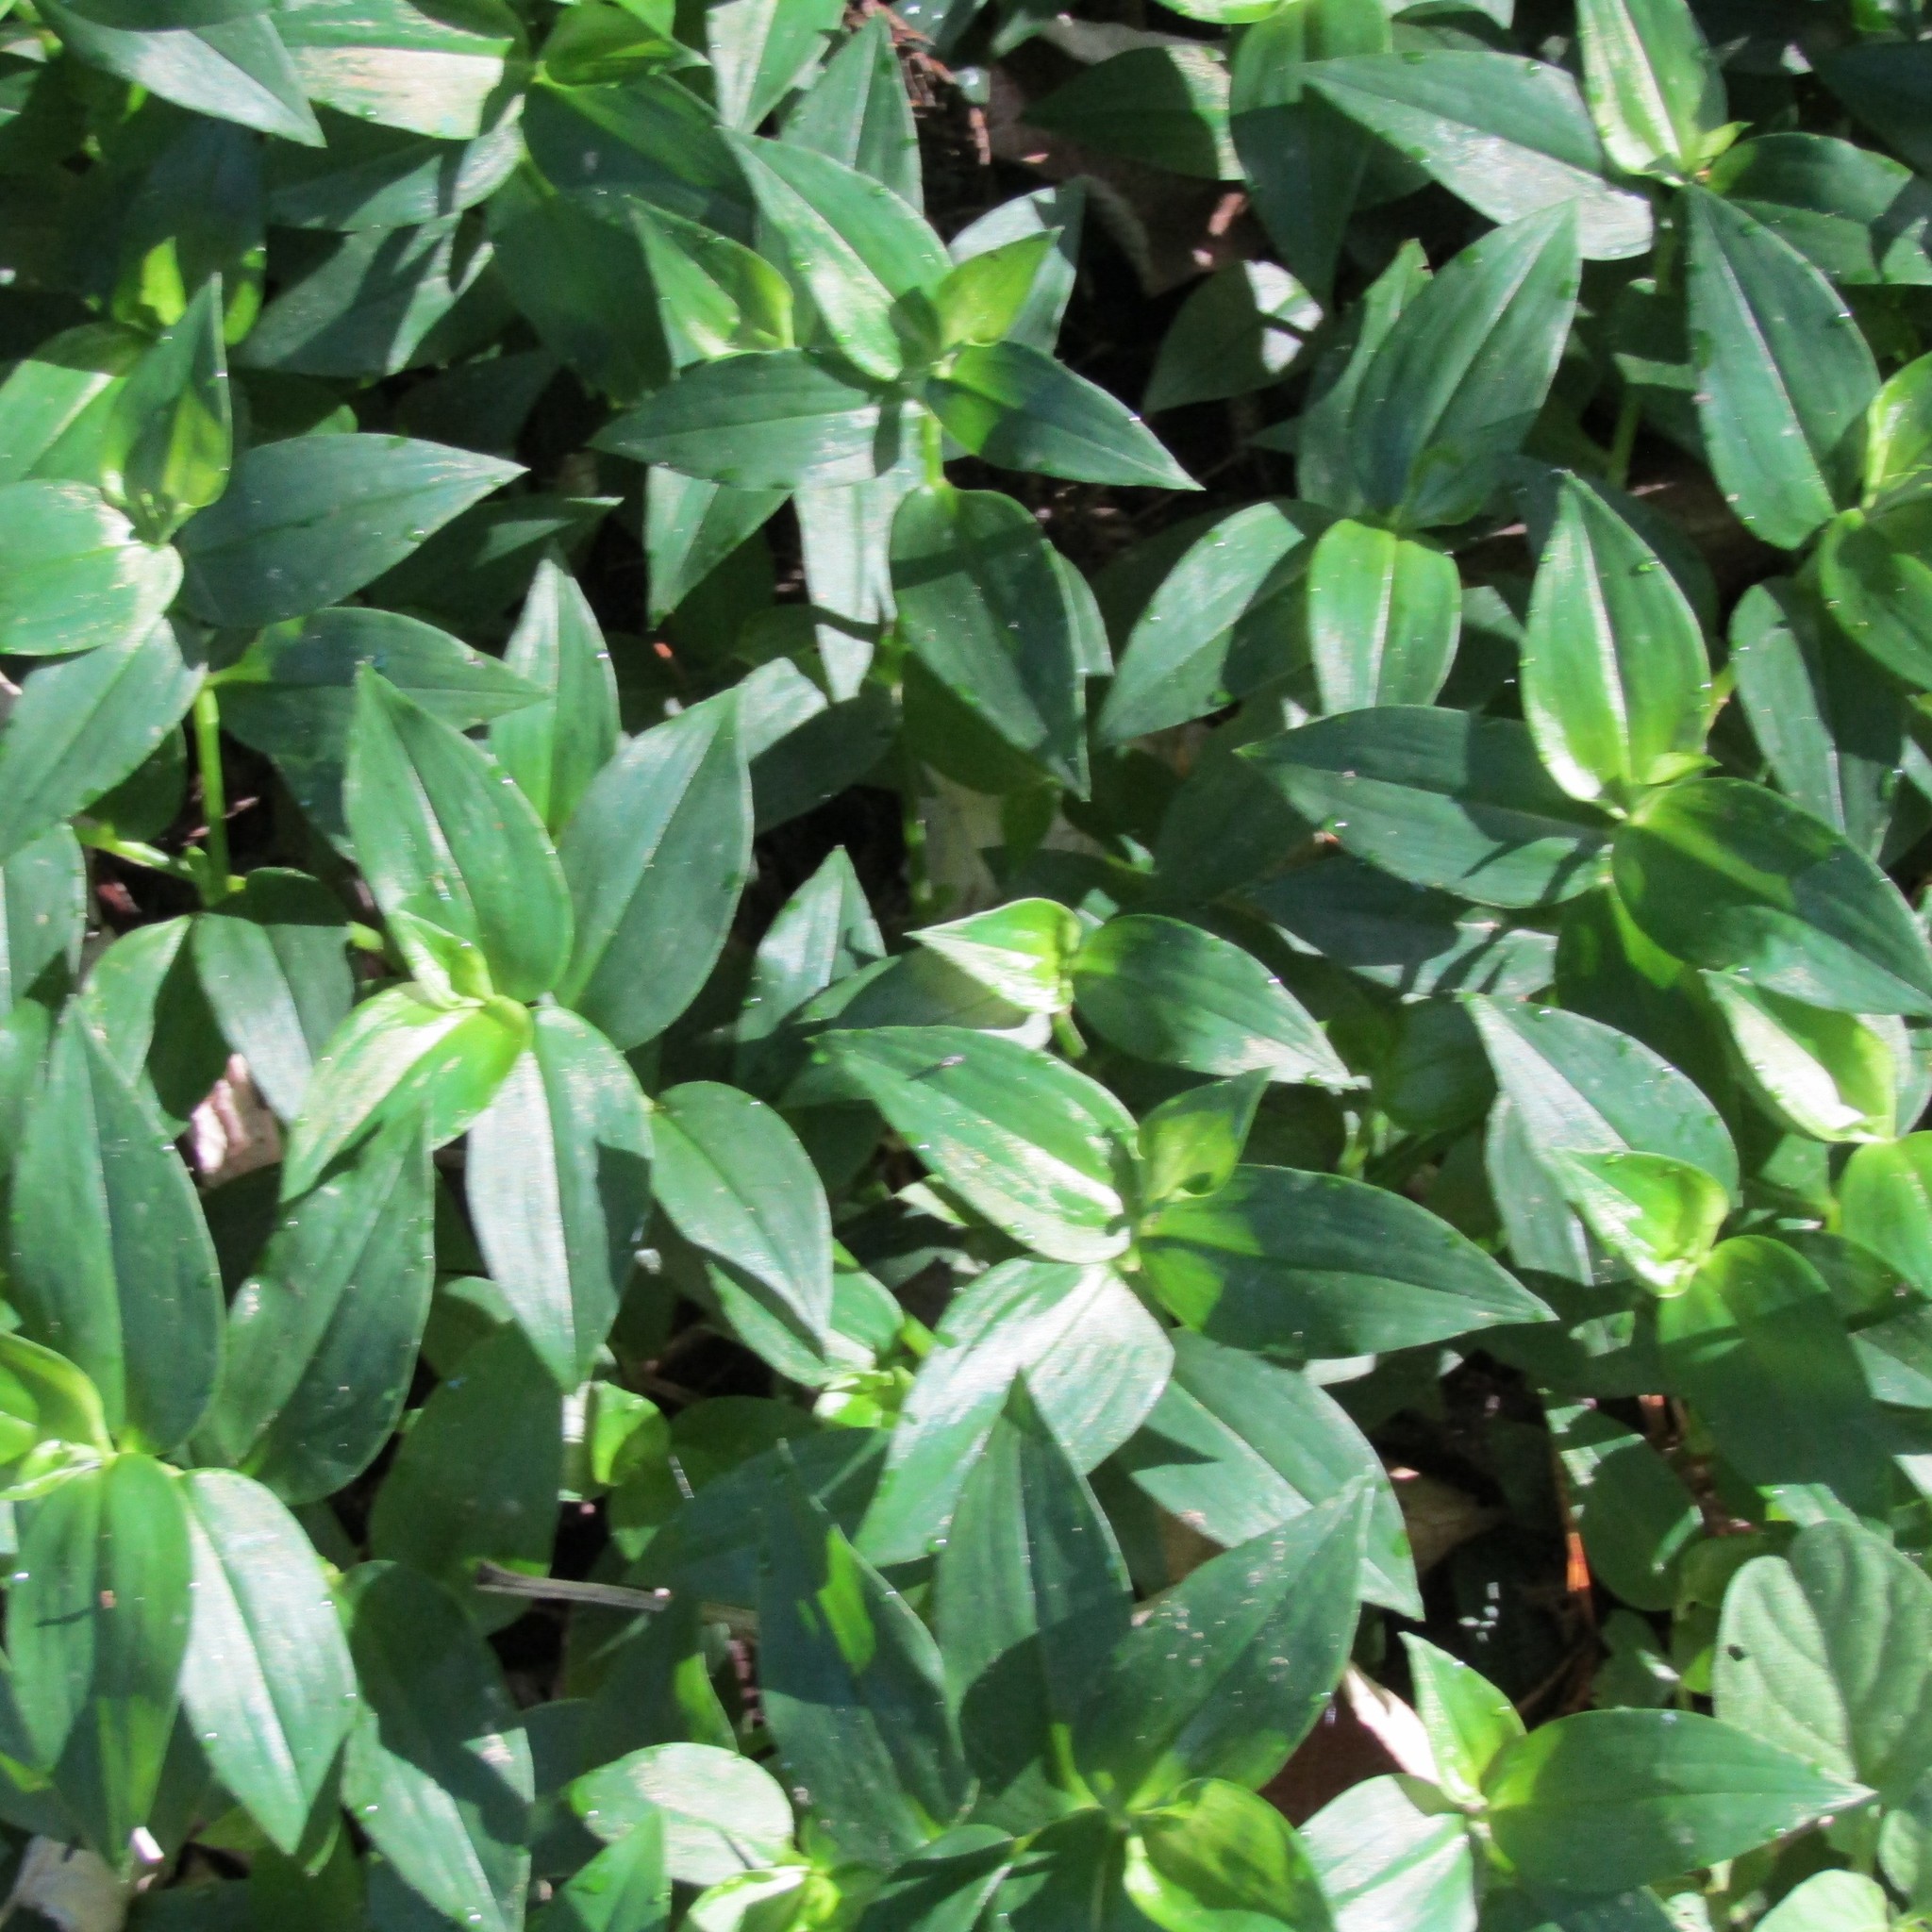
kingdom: Plantae
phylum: Tracheophyta
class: Liliopsida
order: Commelinales
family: Commelinaceae
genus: Tradescantia
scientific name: Tradescantia fluminensis
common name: Wandering-jew
